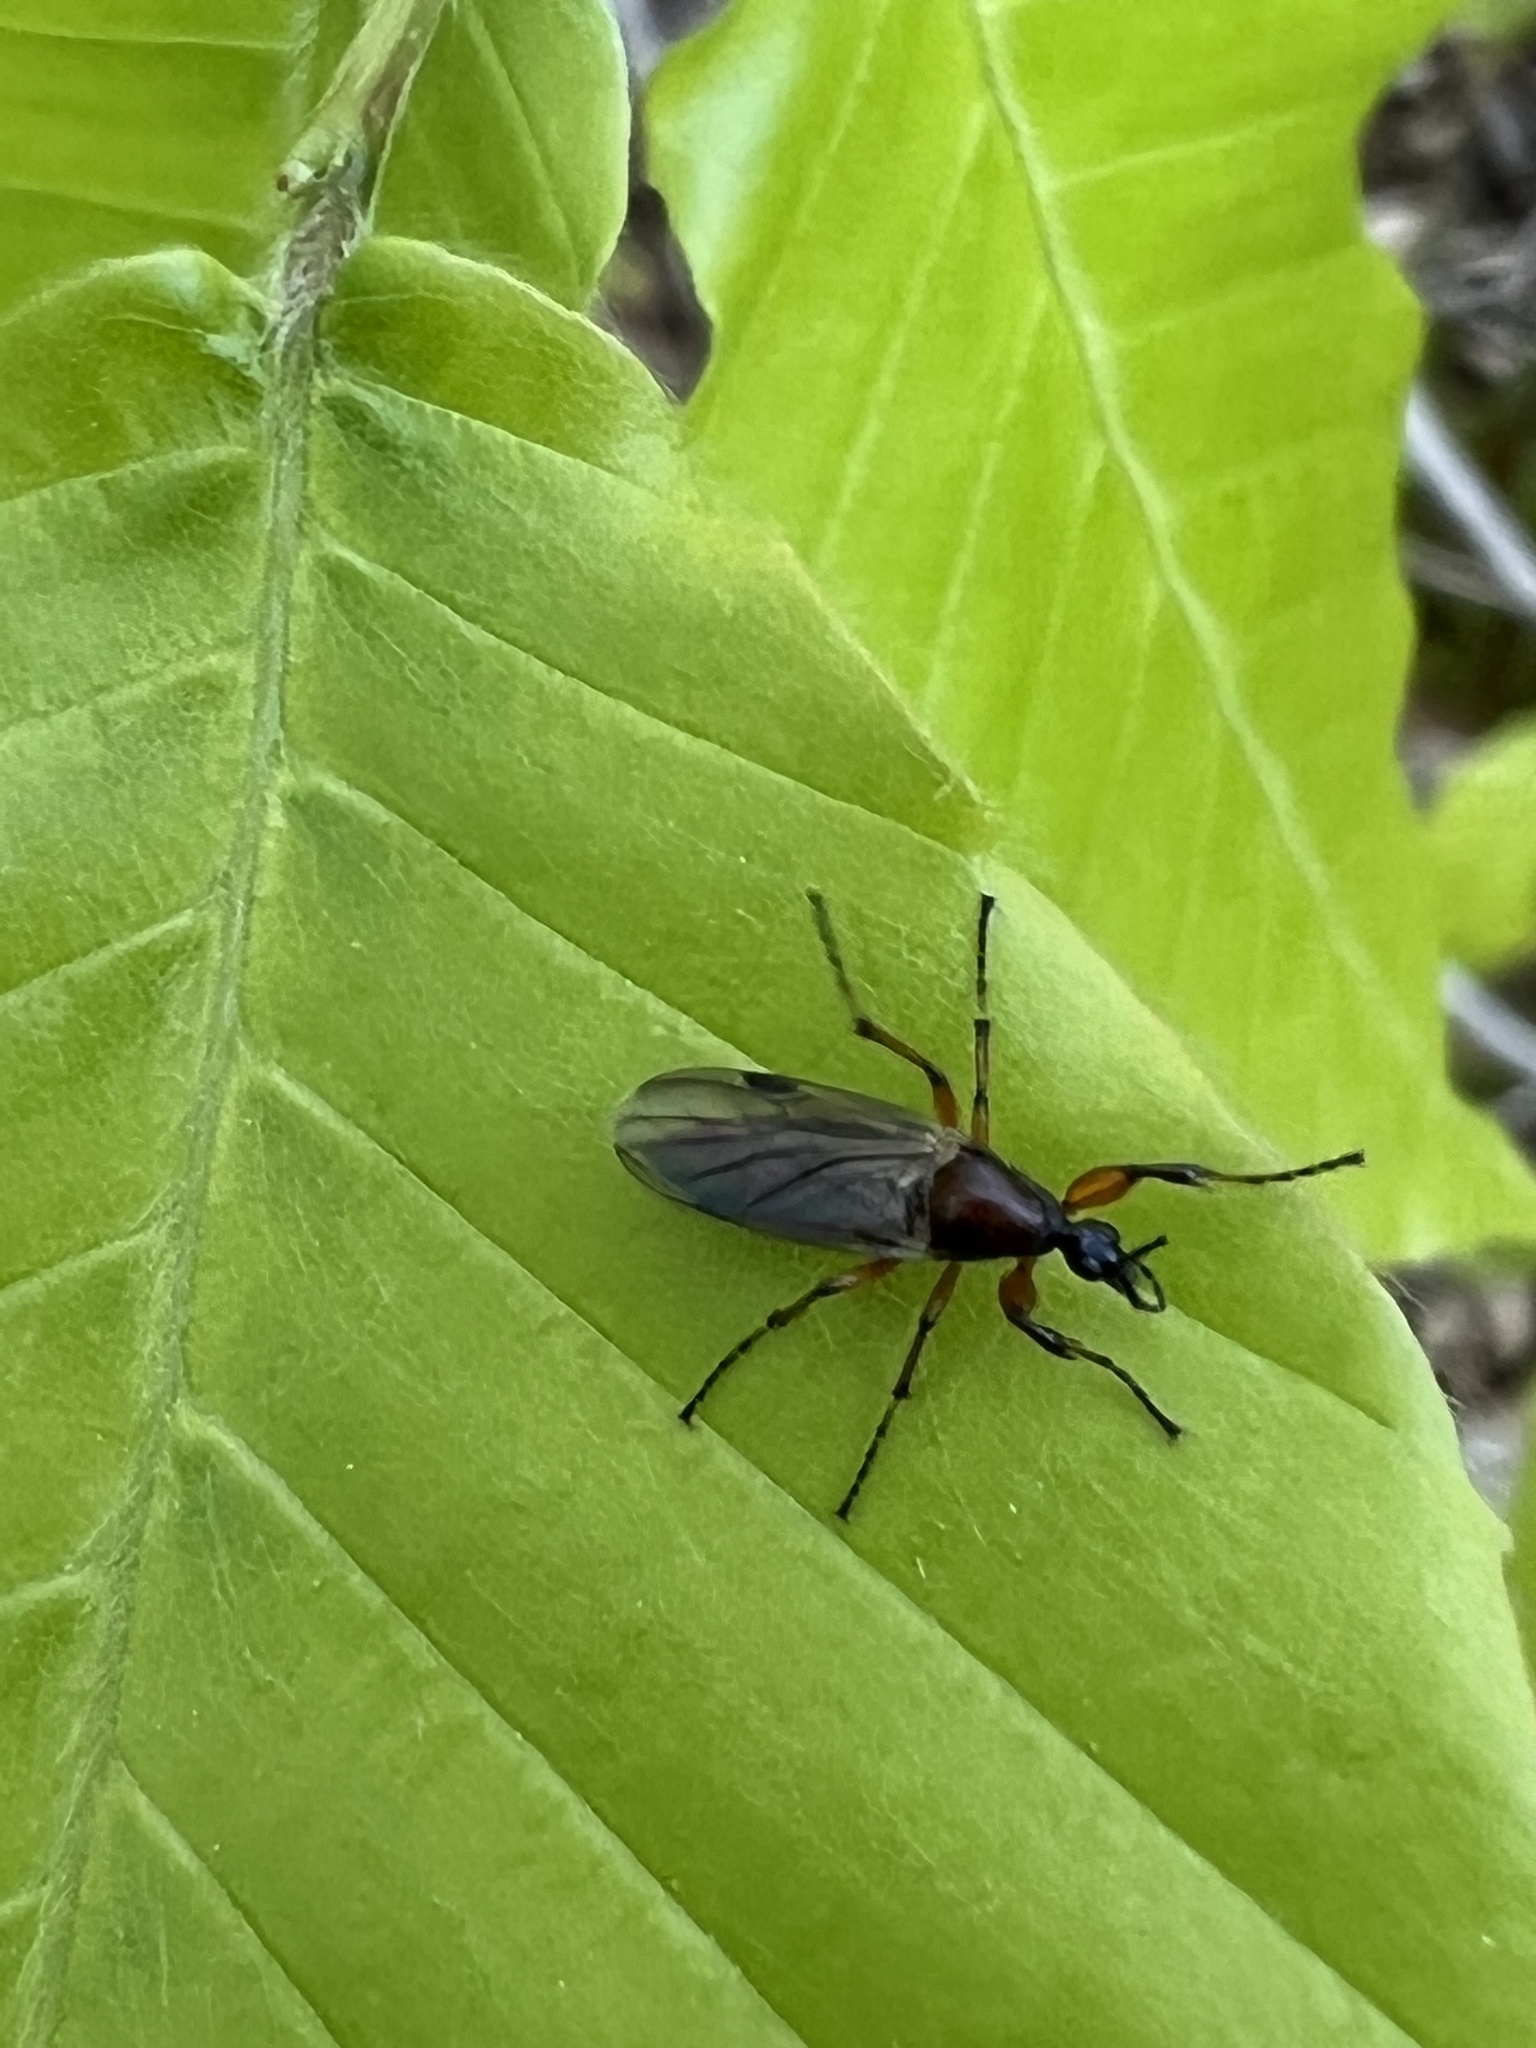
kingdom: Animalia
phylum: Arthropoda
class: Insecta
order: Diptera
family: Bibionidae
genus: Bibio
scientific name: Bibio articulatus
